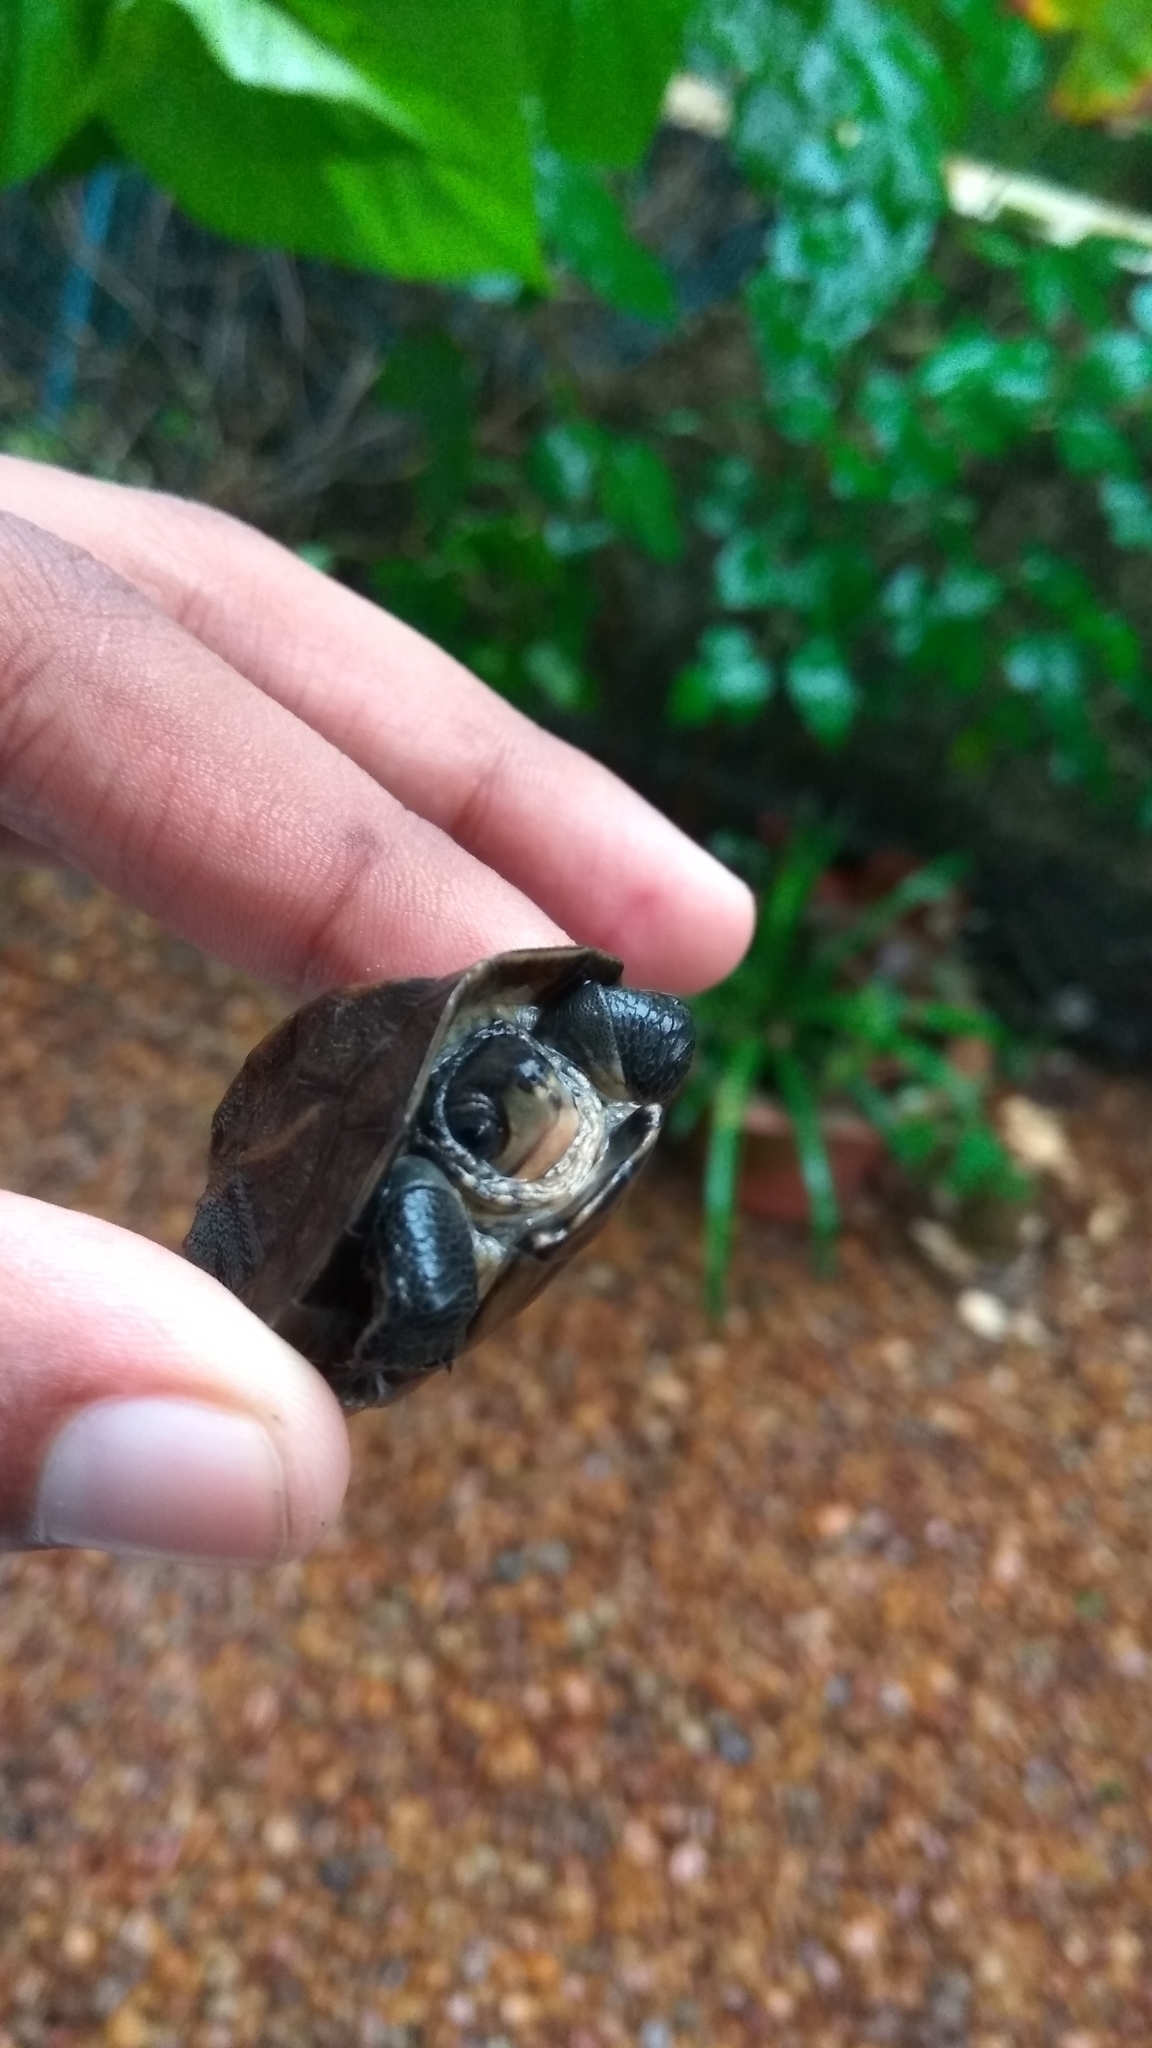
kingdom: Animalia
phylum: Chordata
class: Testudines
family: Geoemydidae
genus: Melanochelys
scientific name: Melanochelys trijuga
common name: Indian black turtle
